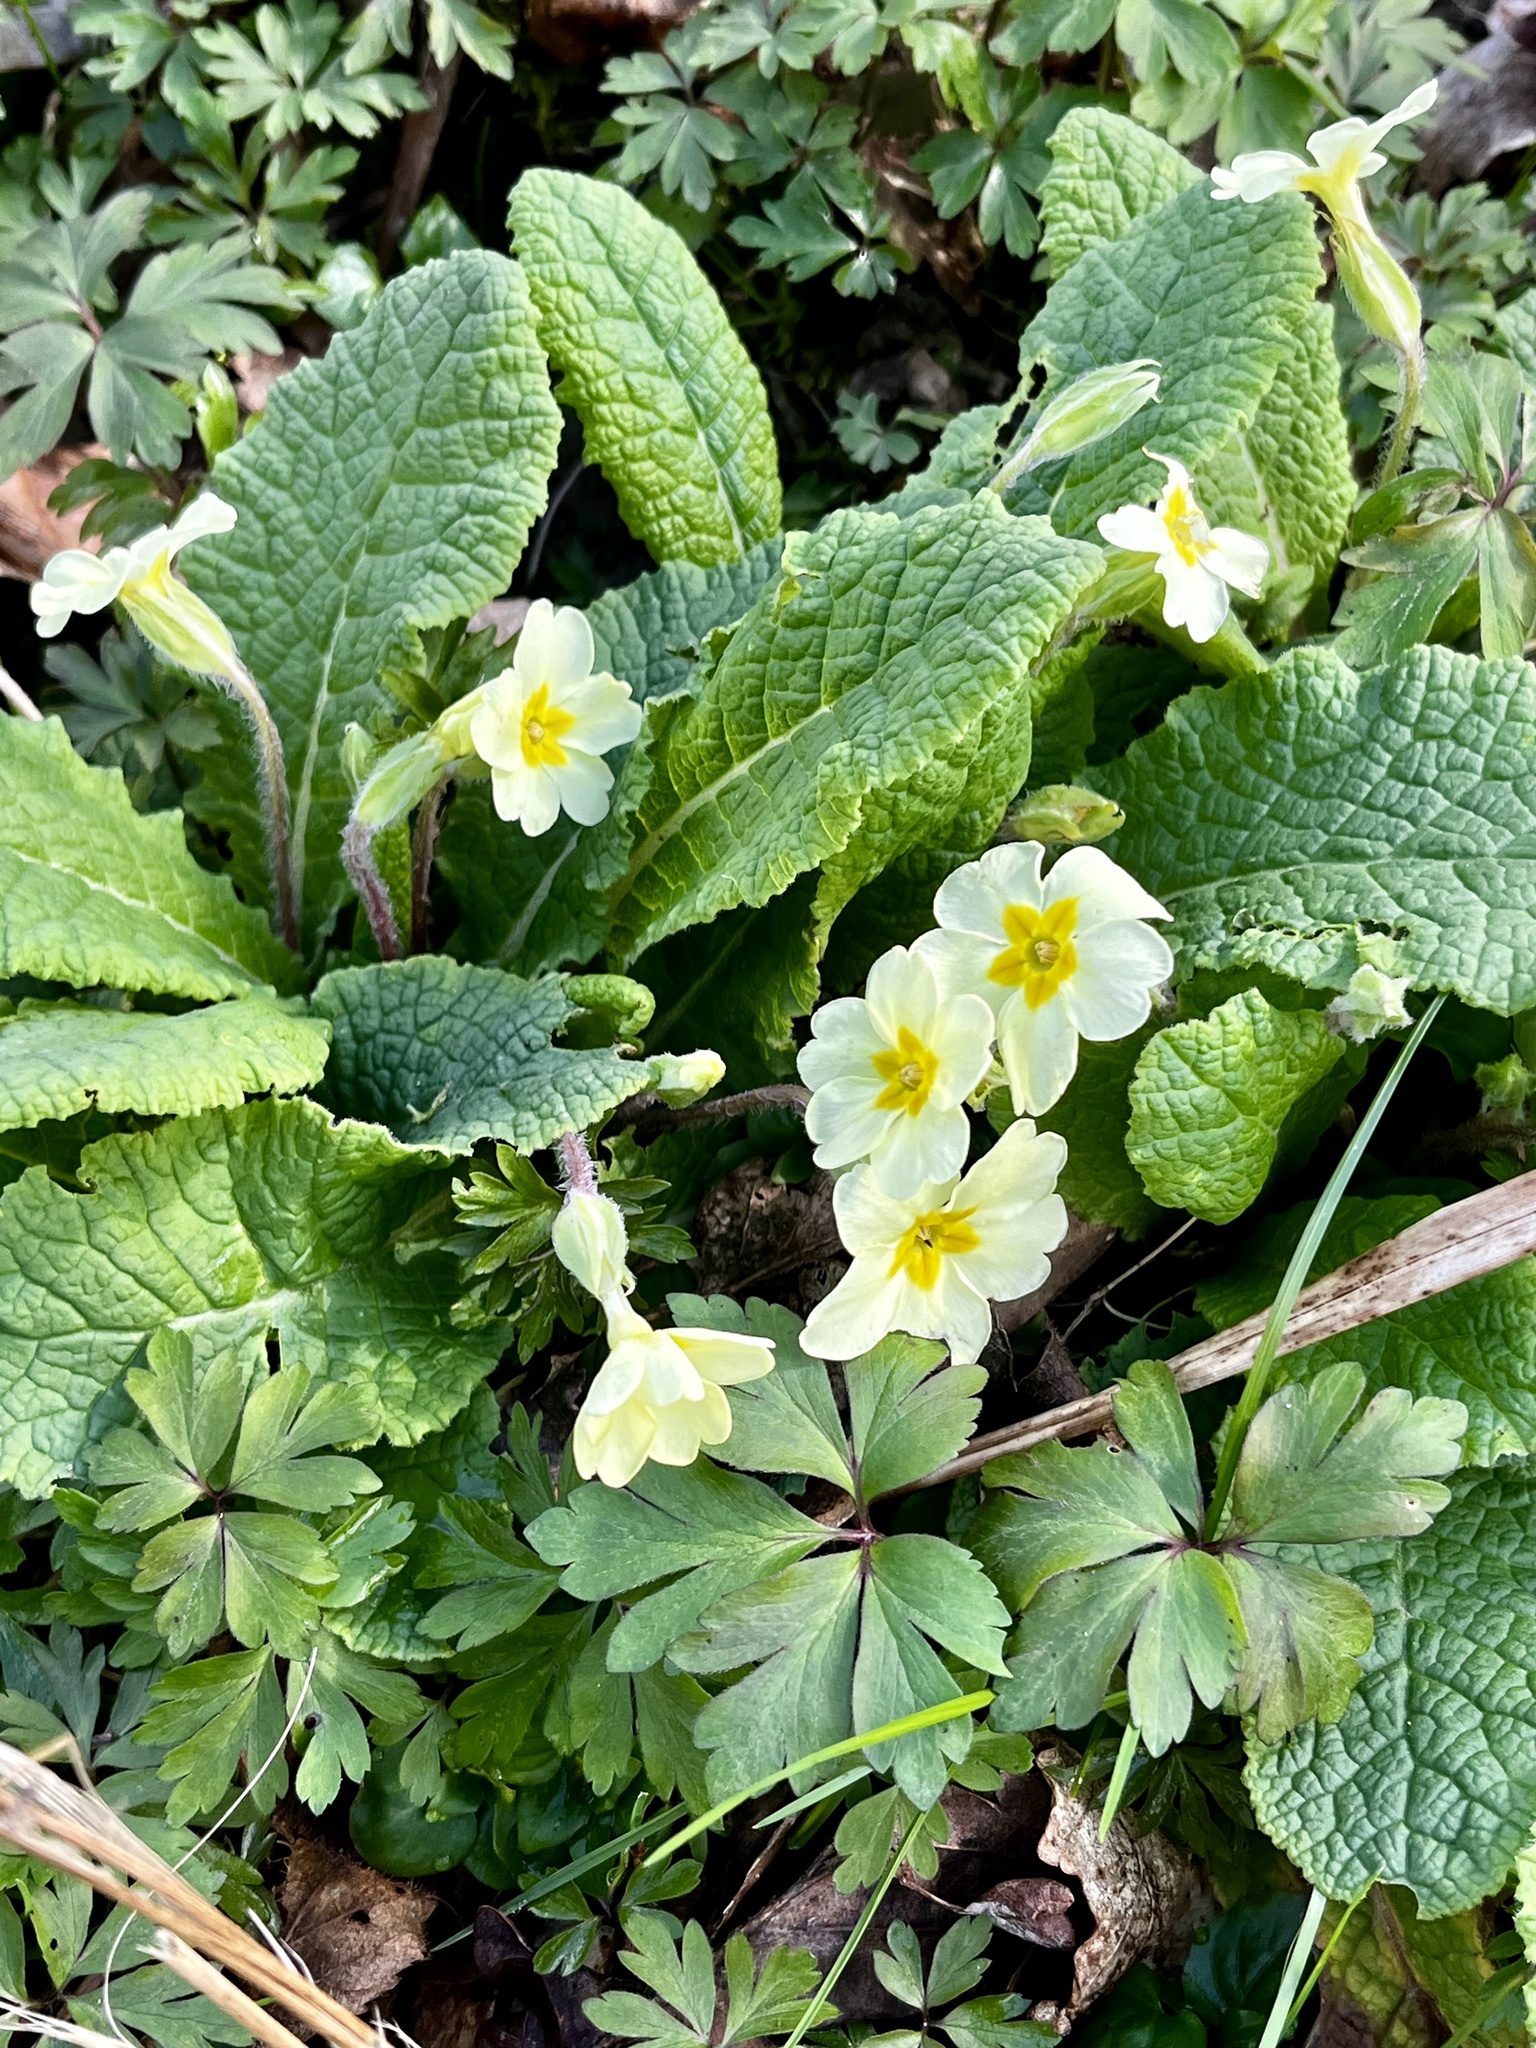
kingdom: Plantae
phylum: Tracheophyta
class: Magnoliopsida
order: Ericales
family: Primulaceae
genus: Primula
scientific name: Primula vulgaris
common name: Primrose
